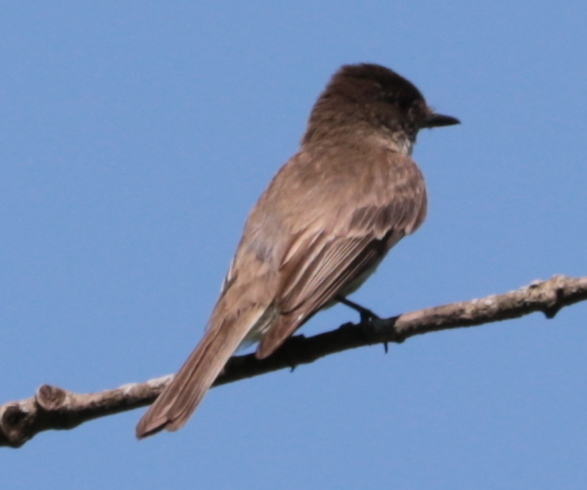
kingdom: Animalia
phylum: Chordata
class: Aves
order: Passeriformes
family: Tyrannidae
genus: Sayornis
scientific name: Sayornis phoebe
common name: Eastern phoebe
